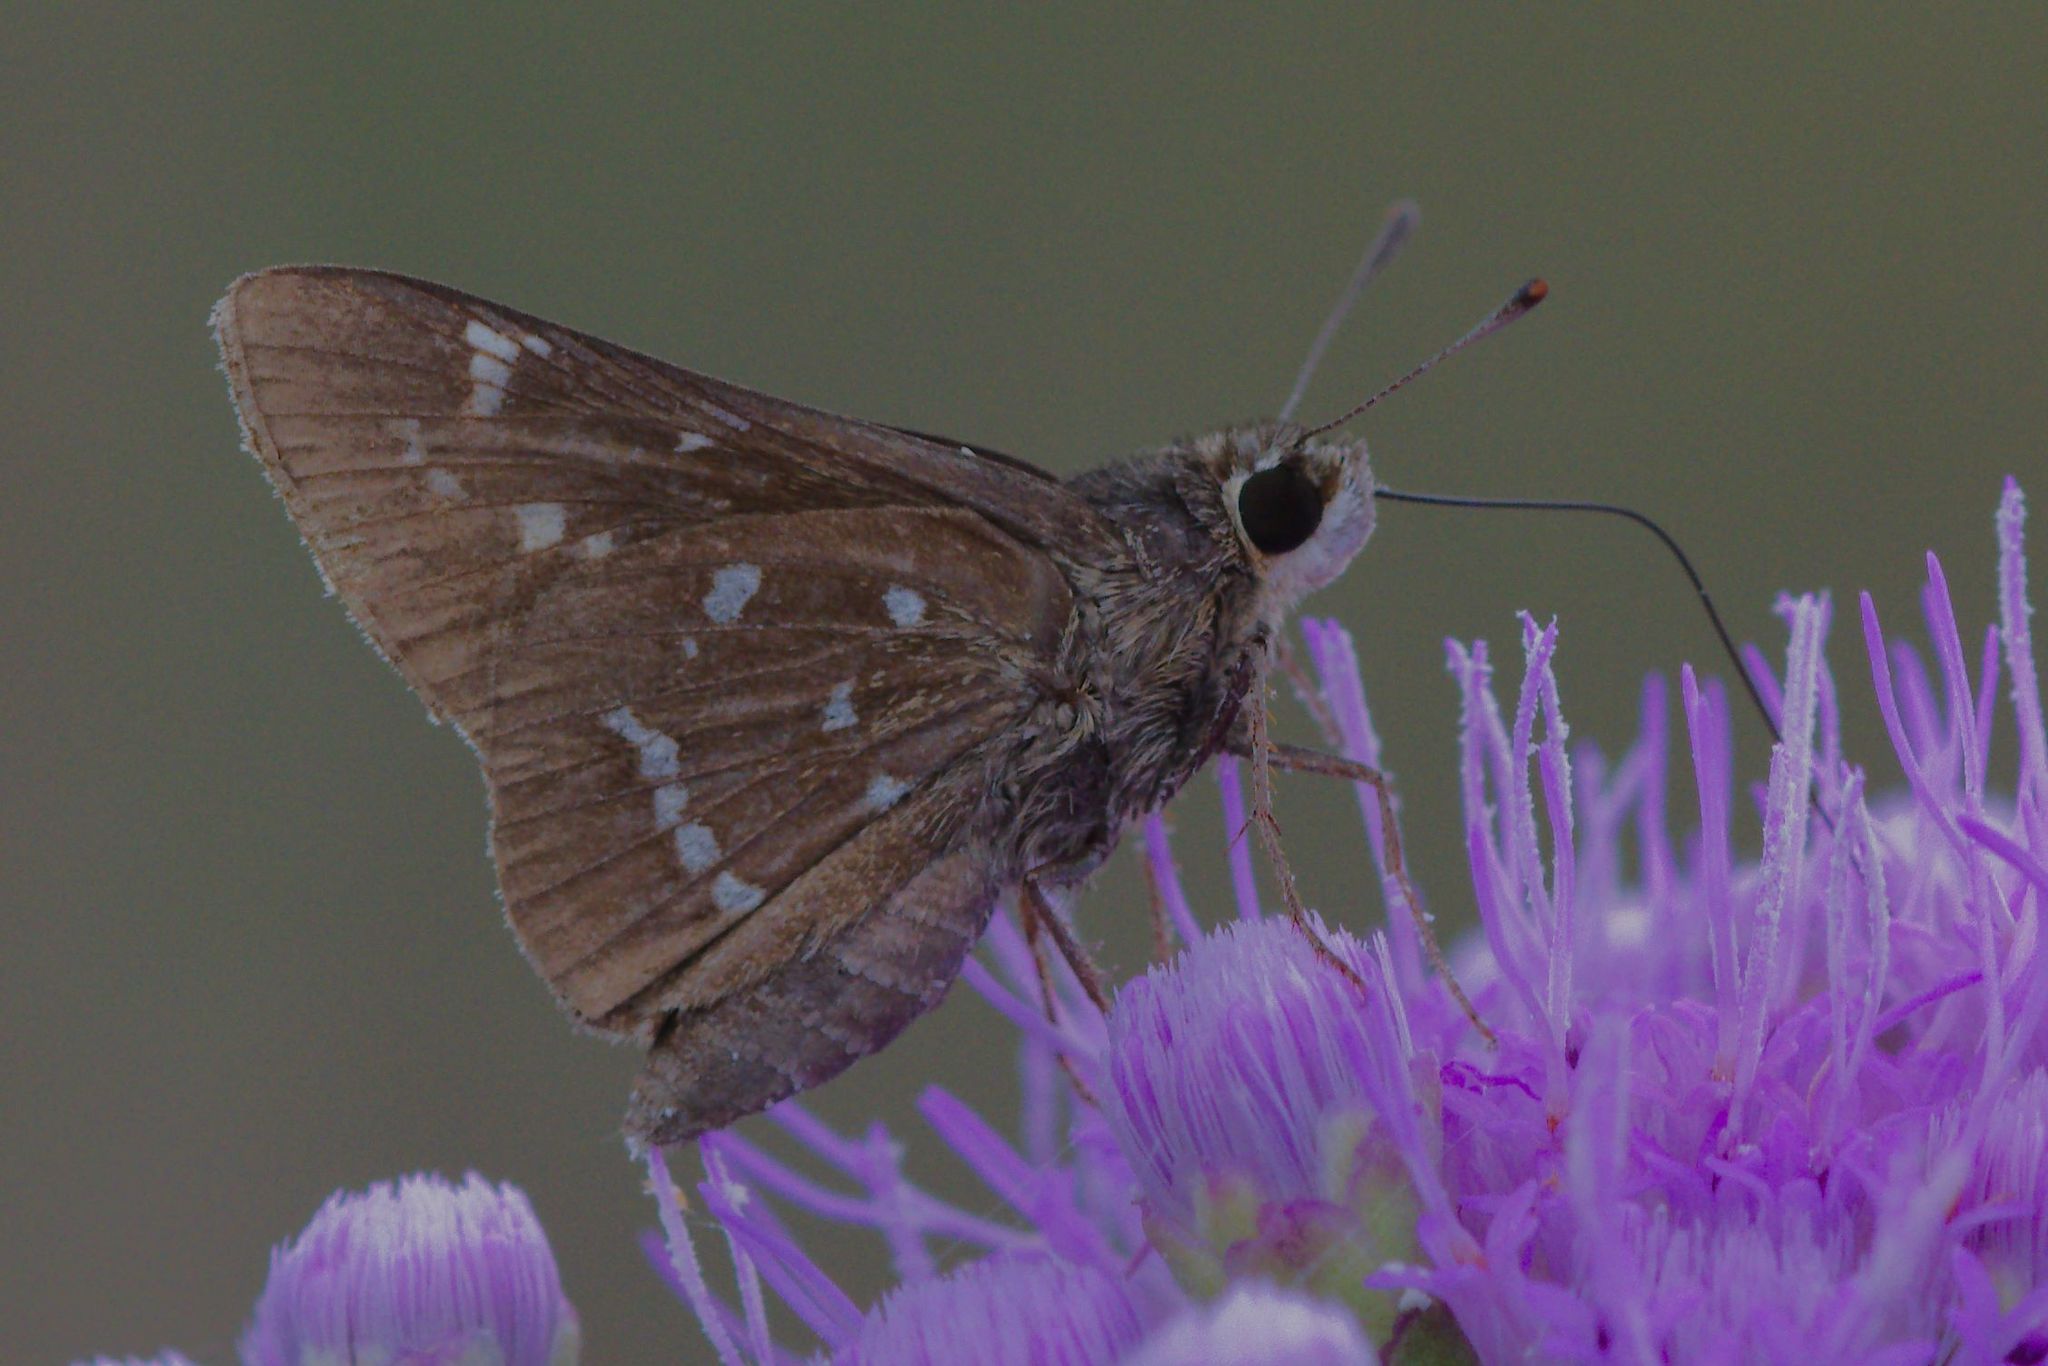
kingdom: Animalia
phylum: Arthropoda
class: Insecta
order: Lepidoptera
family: Hesperiidae
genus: Atrytonopsis
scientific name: Atrytonopsis loammi
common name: Loammi skipper
